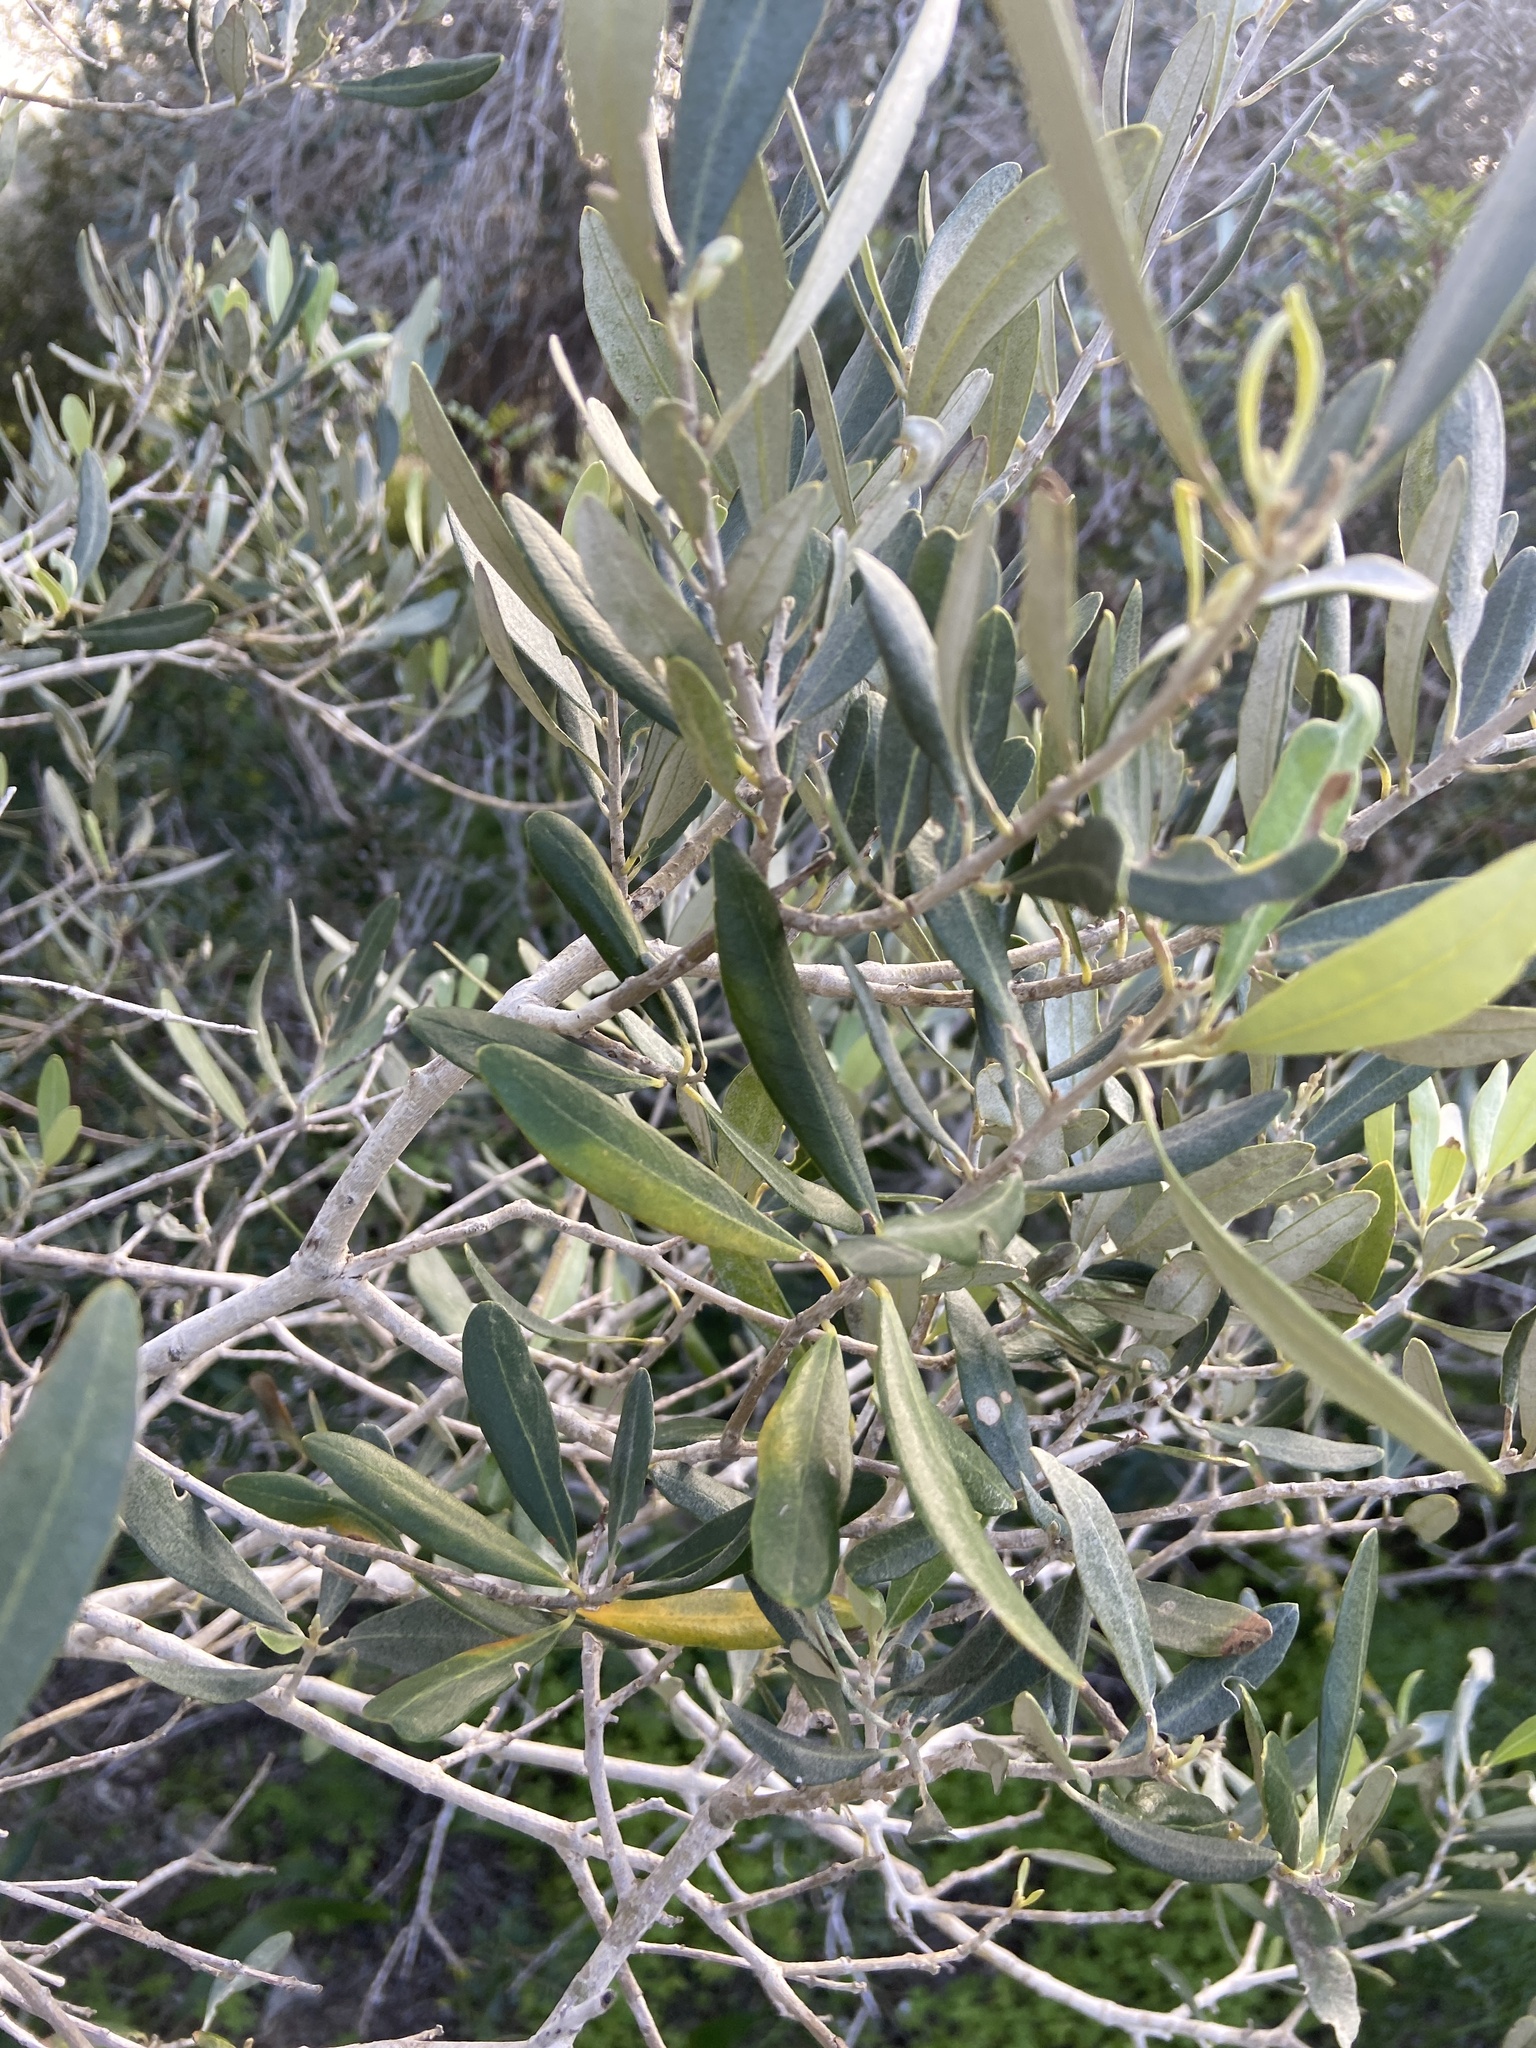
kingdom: Plantae
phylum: Tracheophyta
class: Magnoliopsida
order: Lamiales
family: Oleaceae
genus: Olea
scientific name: Olea europaea
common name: Olive
